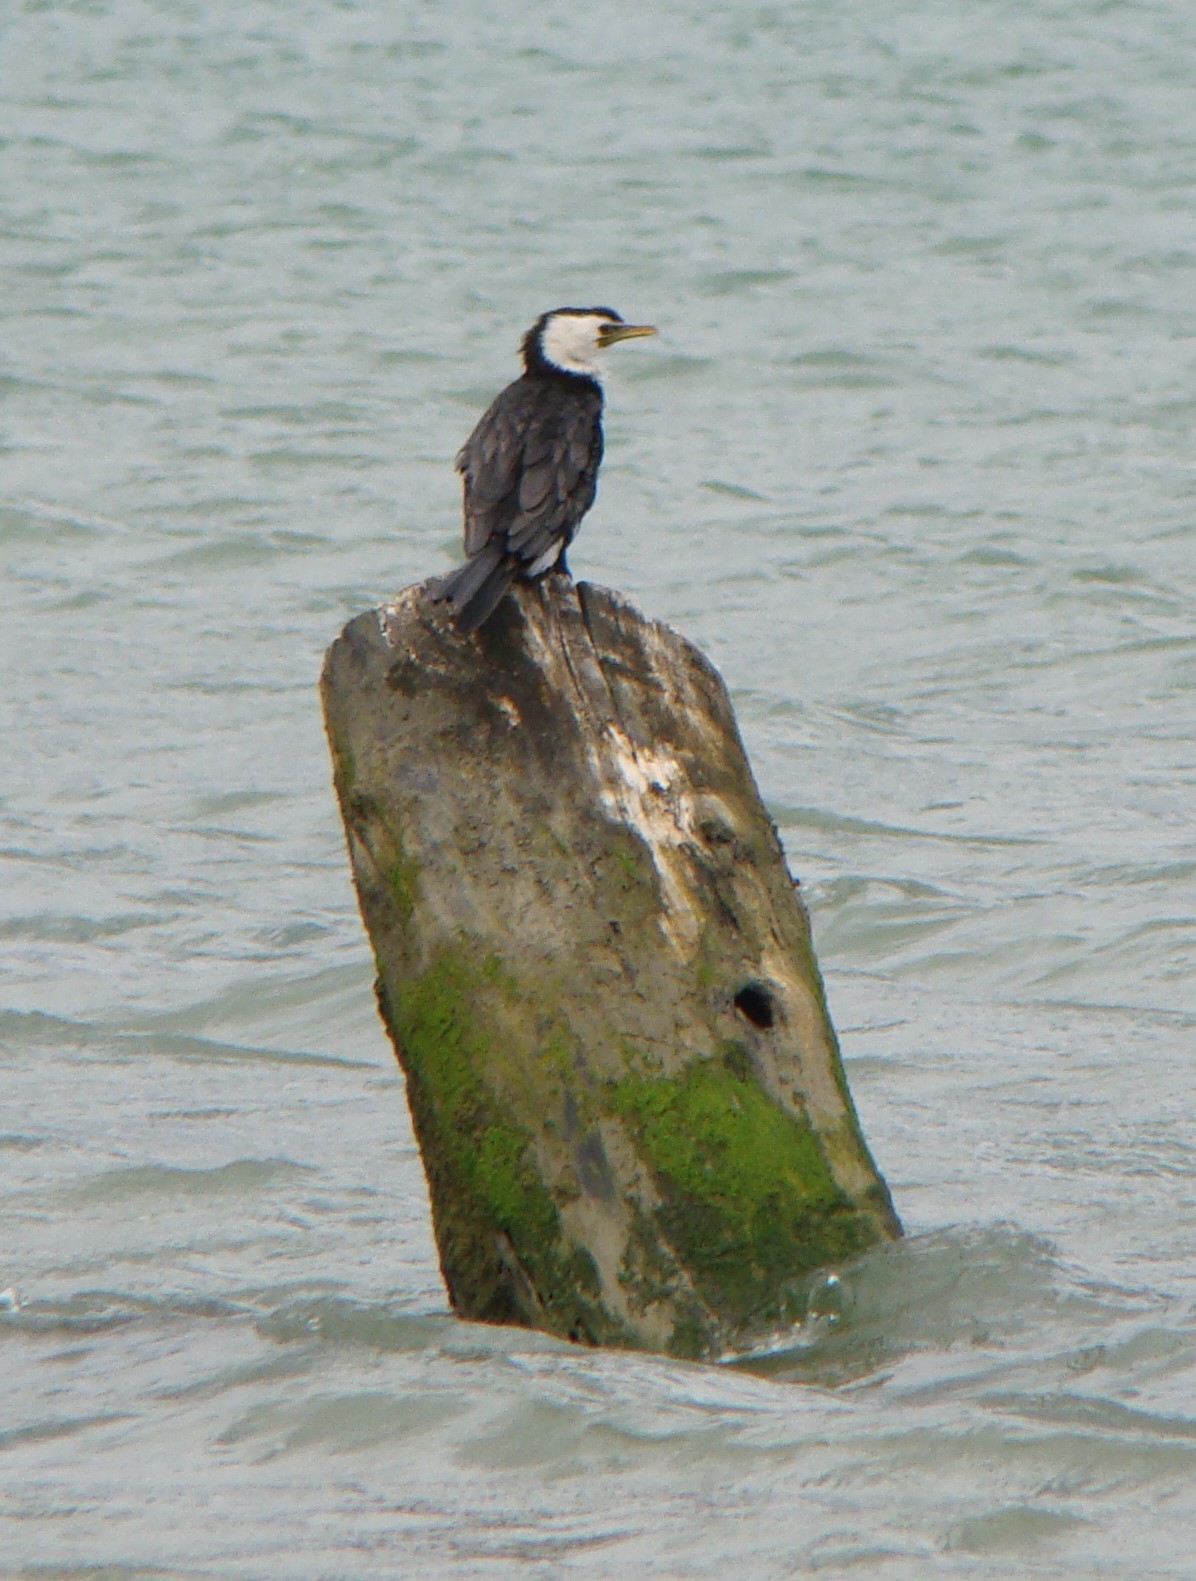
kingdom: Animalia
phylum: Chordata
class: Aves
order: Suliformes
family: Phalacrocoracidae
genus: Microcarbo
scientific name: Microcarbo melanoleucos
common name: Little pied cormorant
